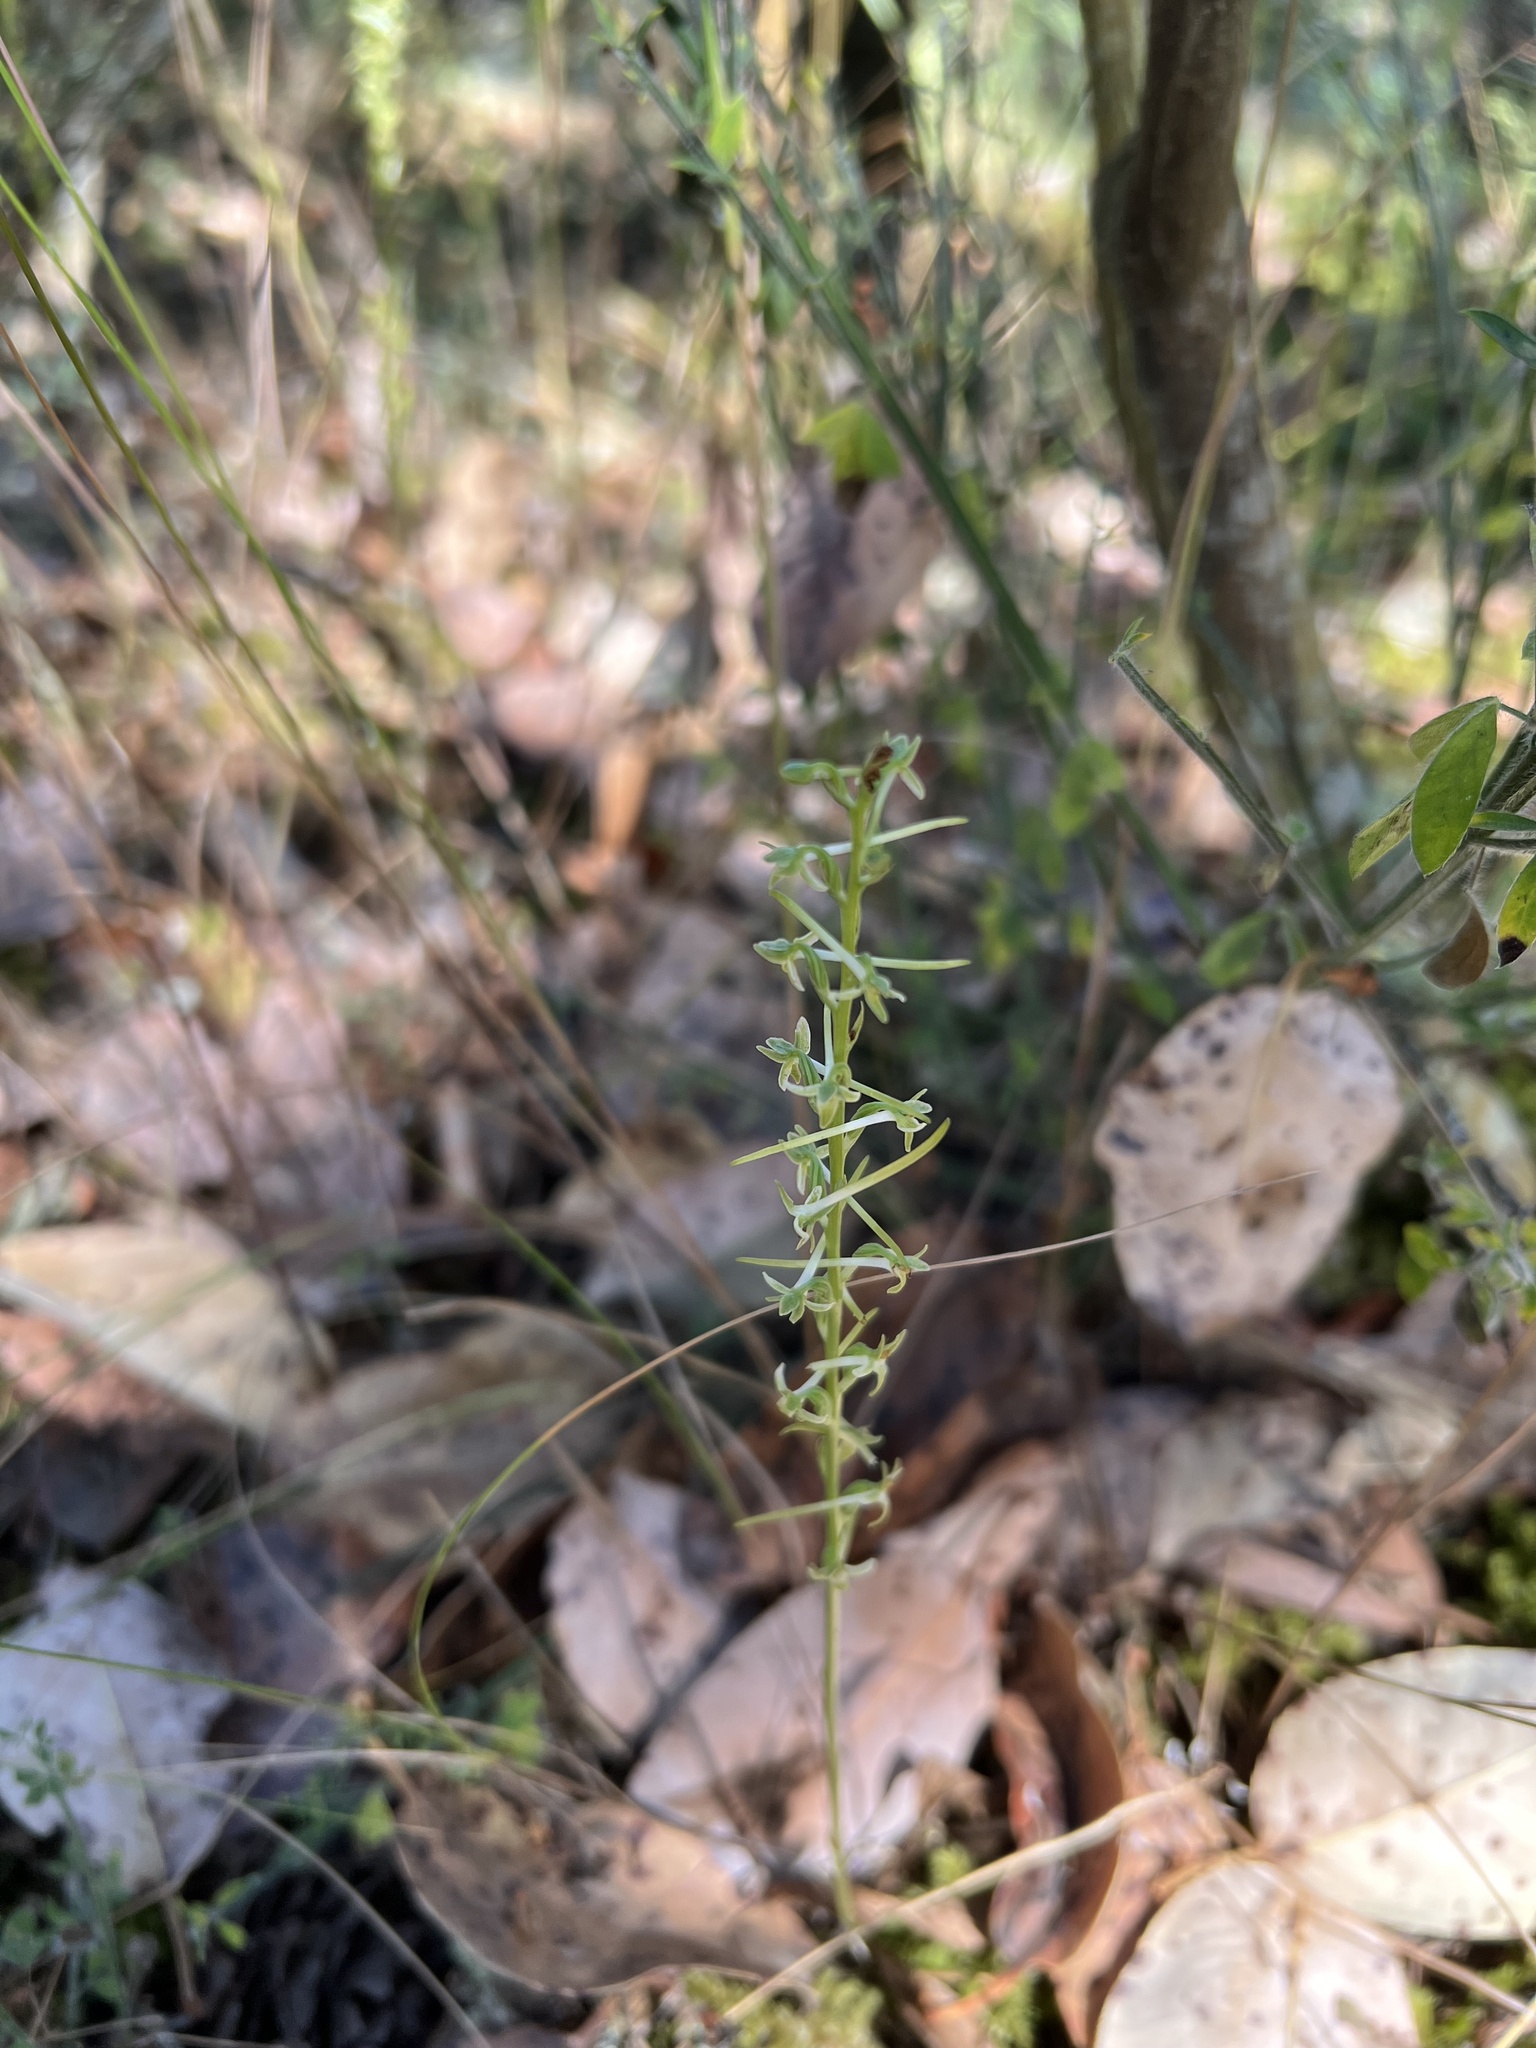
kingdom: Plantae
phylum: Tracheophyta
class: Liliopsida
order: Asparagales
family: Orchidaceae
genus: Platanthera
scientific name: Platanthera transversa
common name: Royal rein orchid
